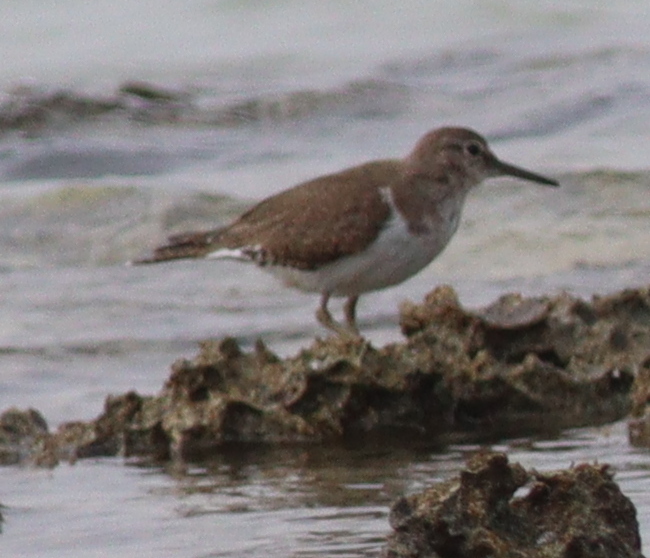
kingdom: Animalia
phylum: Chordata
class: Aves
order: Charadriiformes
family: Scolopacidae
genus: Actitis
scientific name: Actitis hypoleucos
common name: Common sandpiper
